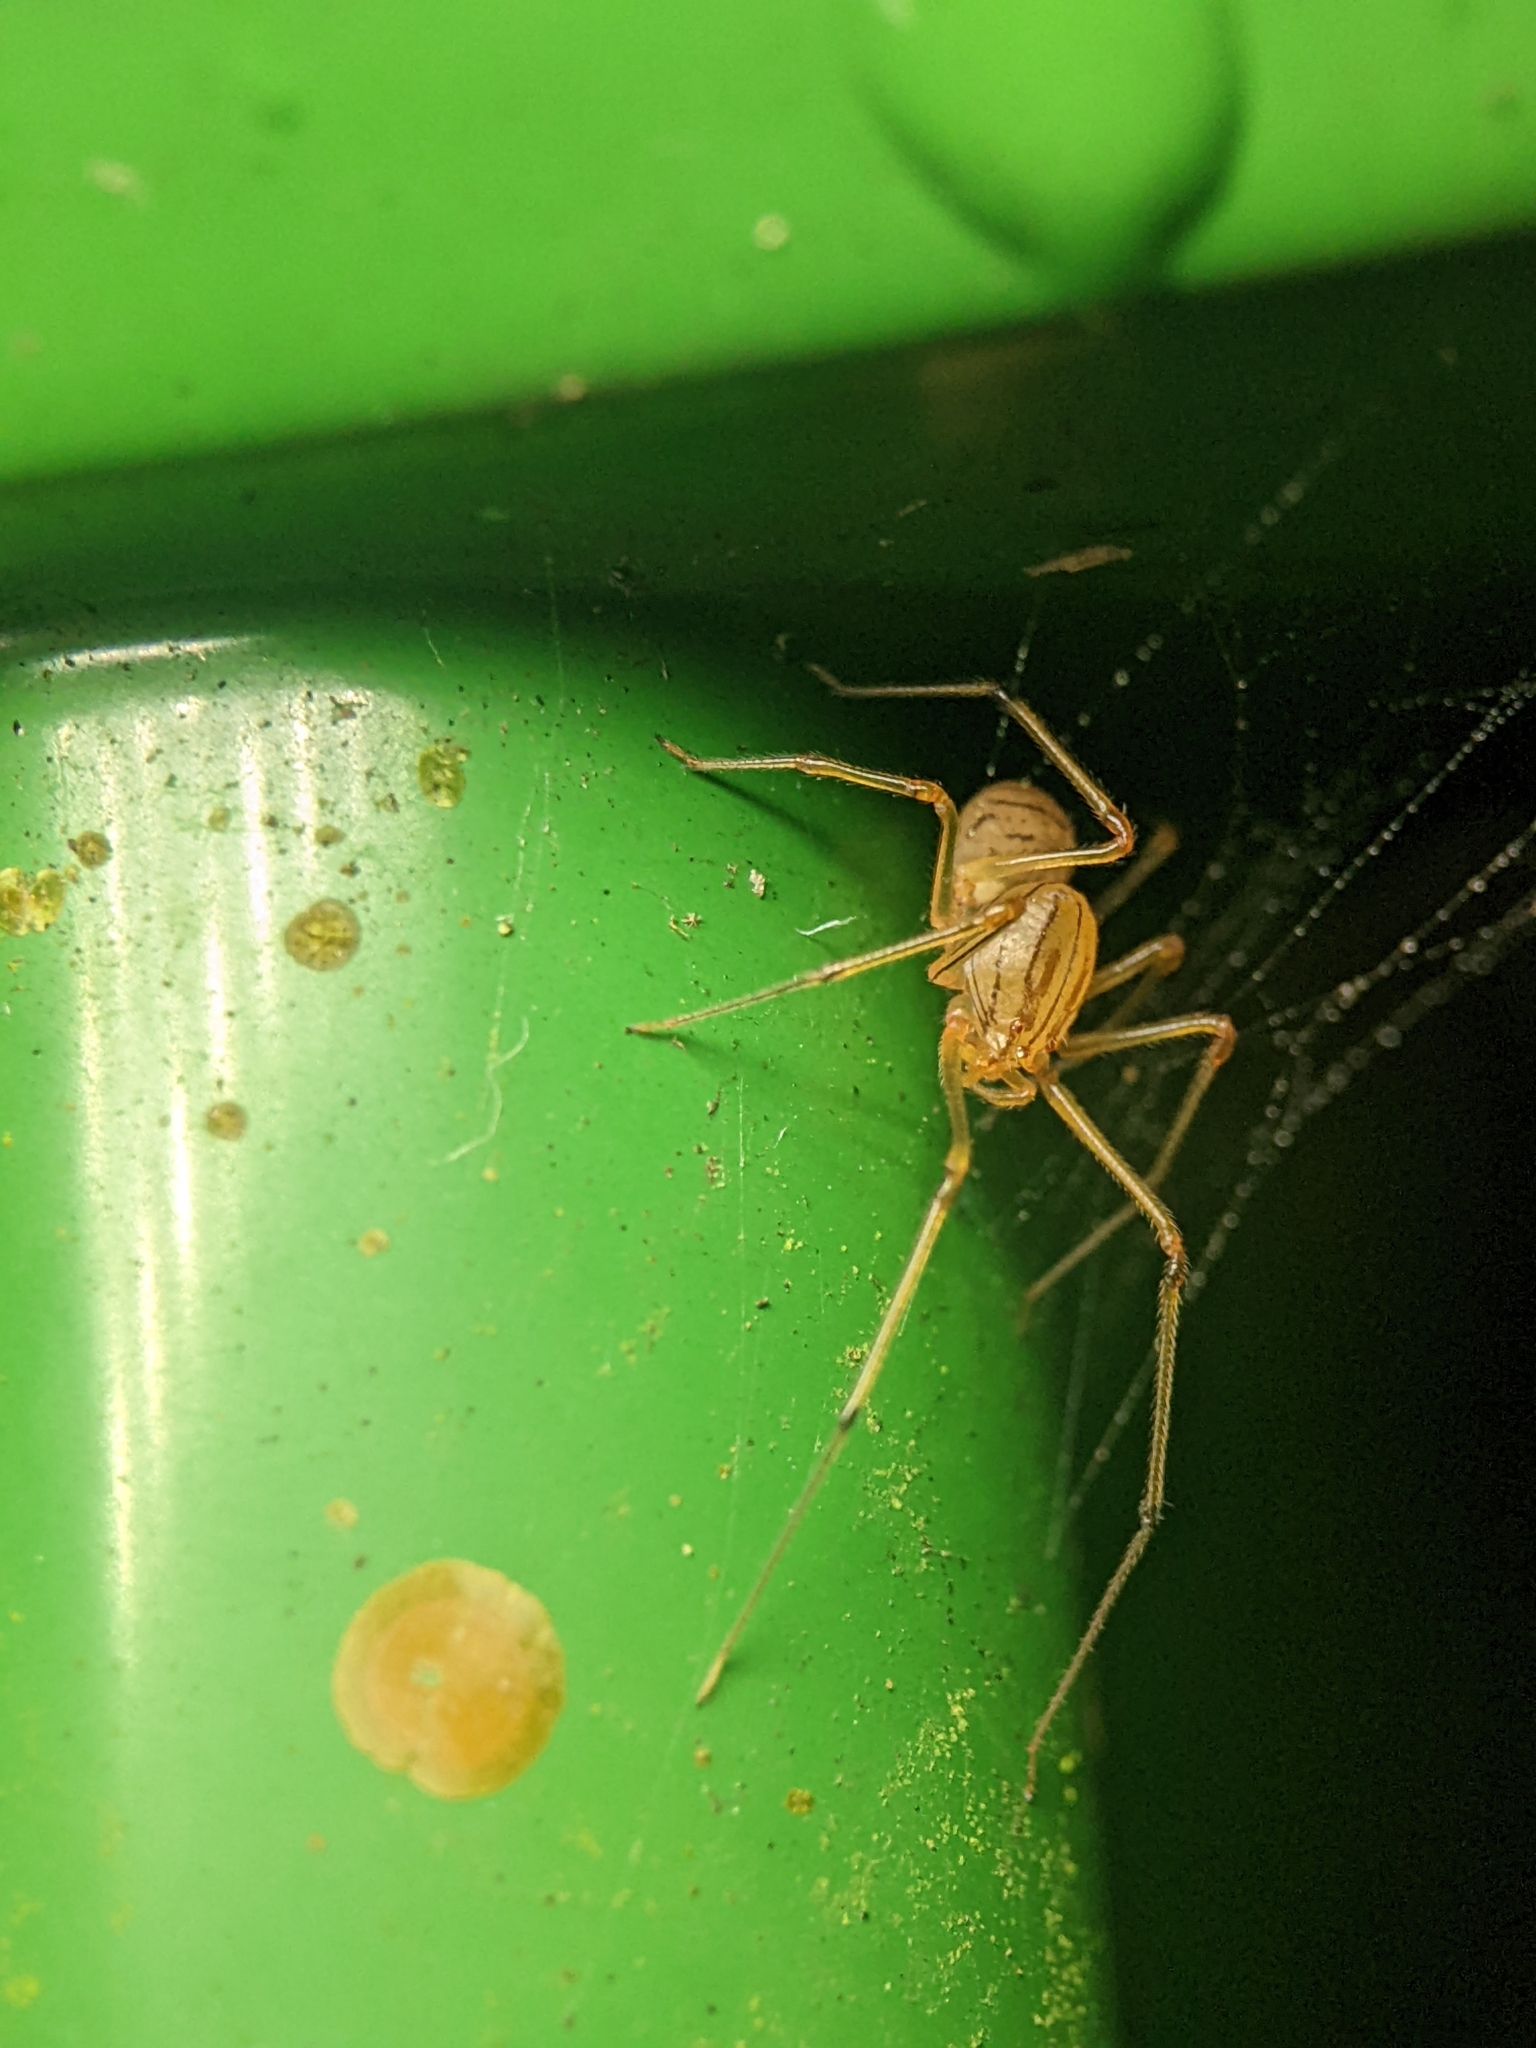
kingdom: Animalia
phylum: Arthropoda
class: Arachnida
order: Araneae
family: Scytodidae
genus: Dictis
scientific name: Dictis striatipes
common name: Spider
